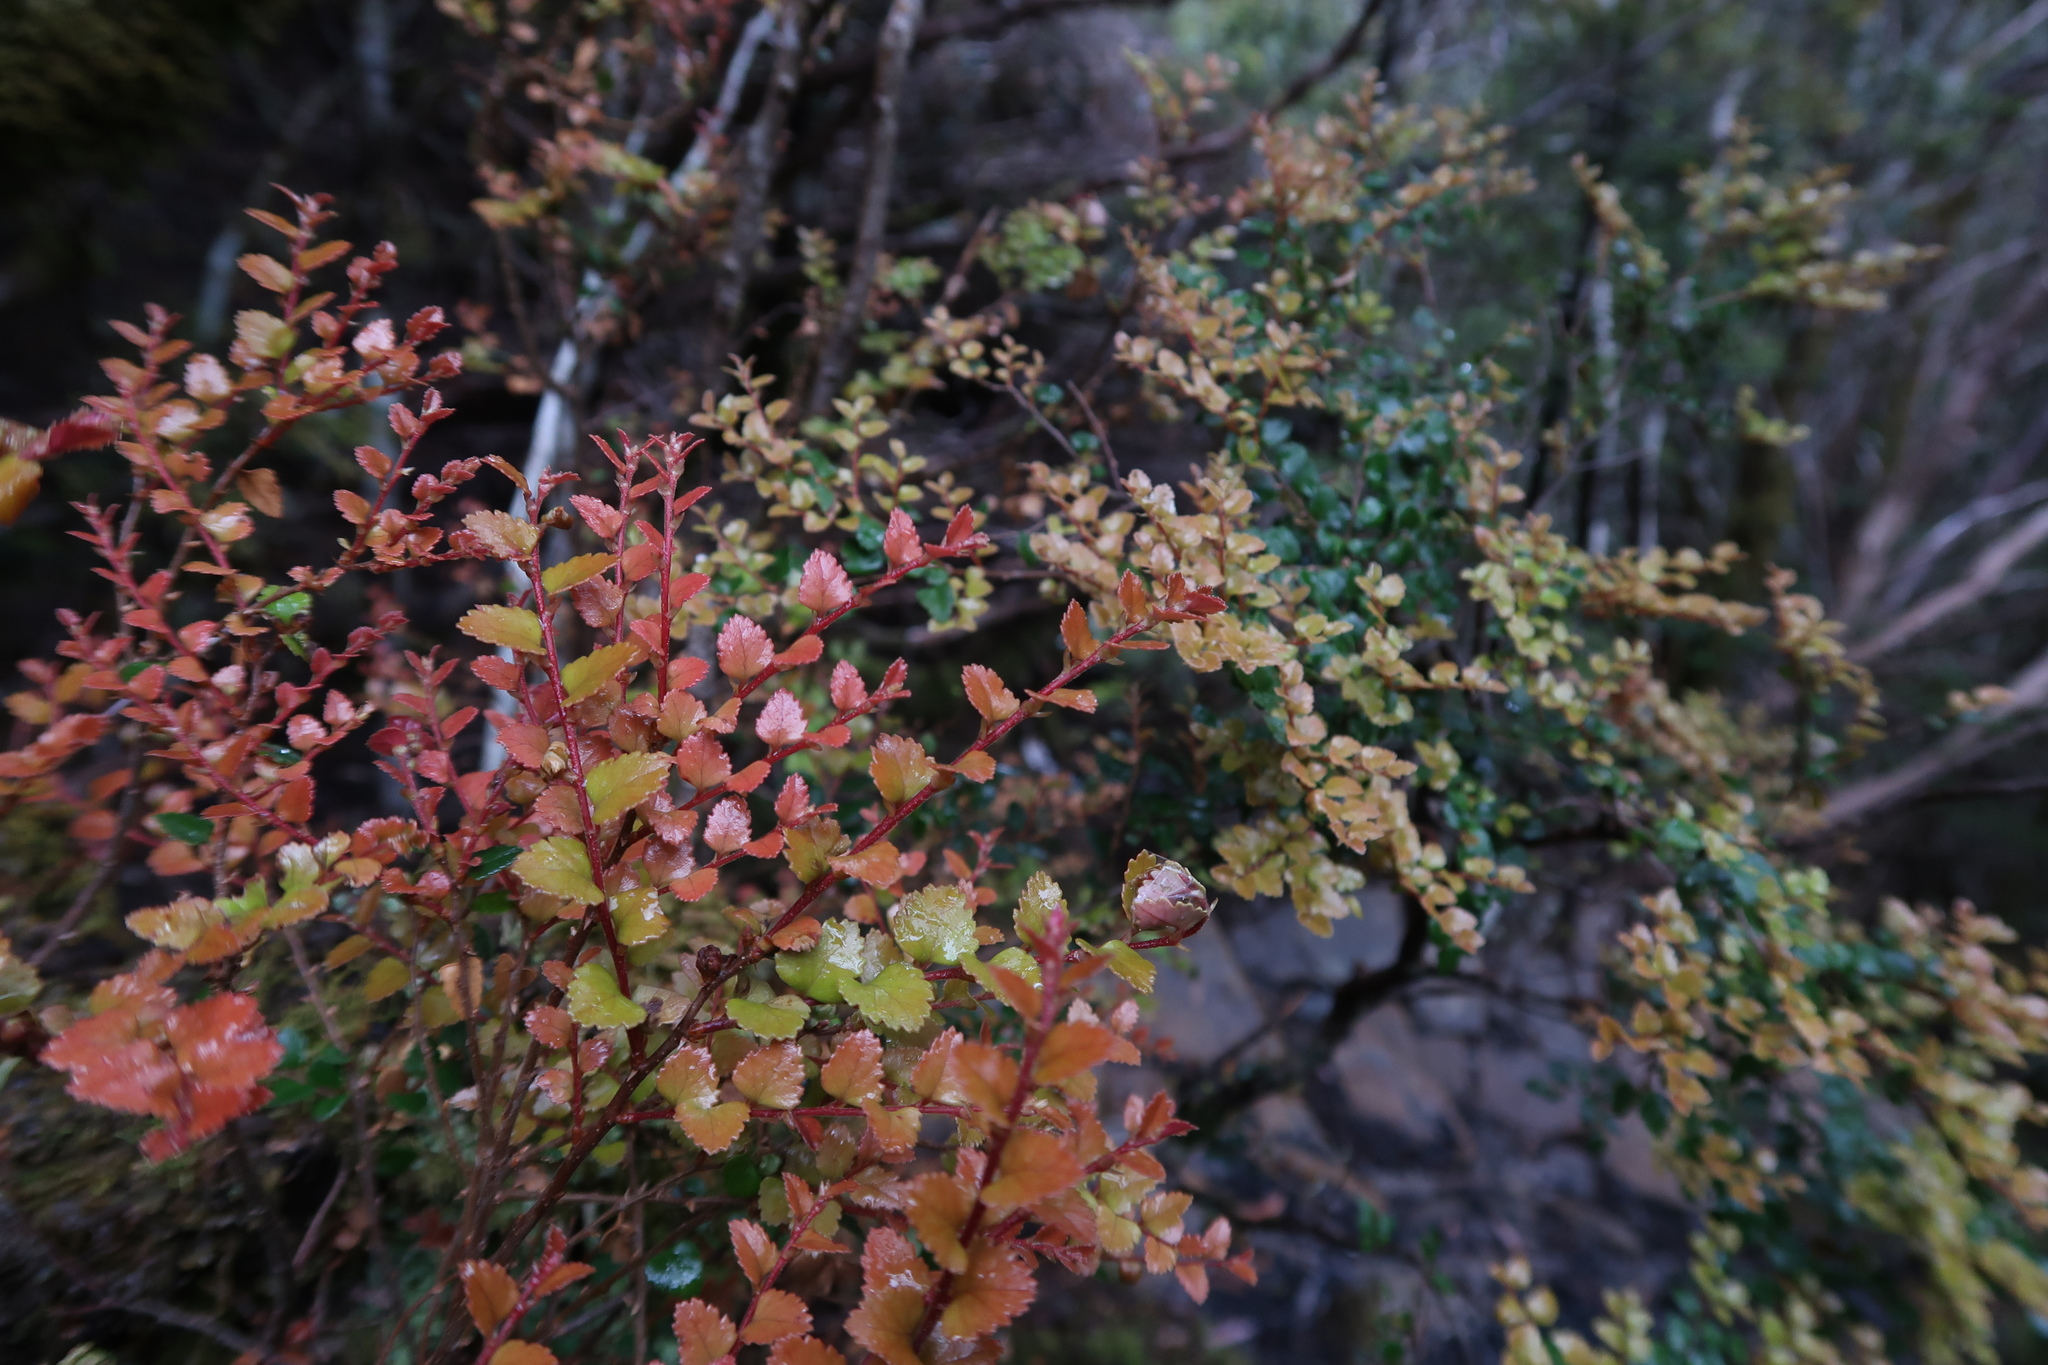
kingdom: Plantae
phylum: Tracheophyta
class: Magnoliopsida
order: Fagales
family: Nothofagaceae
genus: Nothofagus
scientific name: Nothofagus cunninghamii
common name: Myrtle beech
